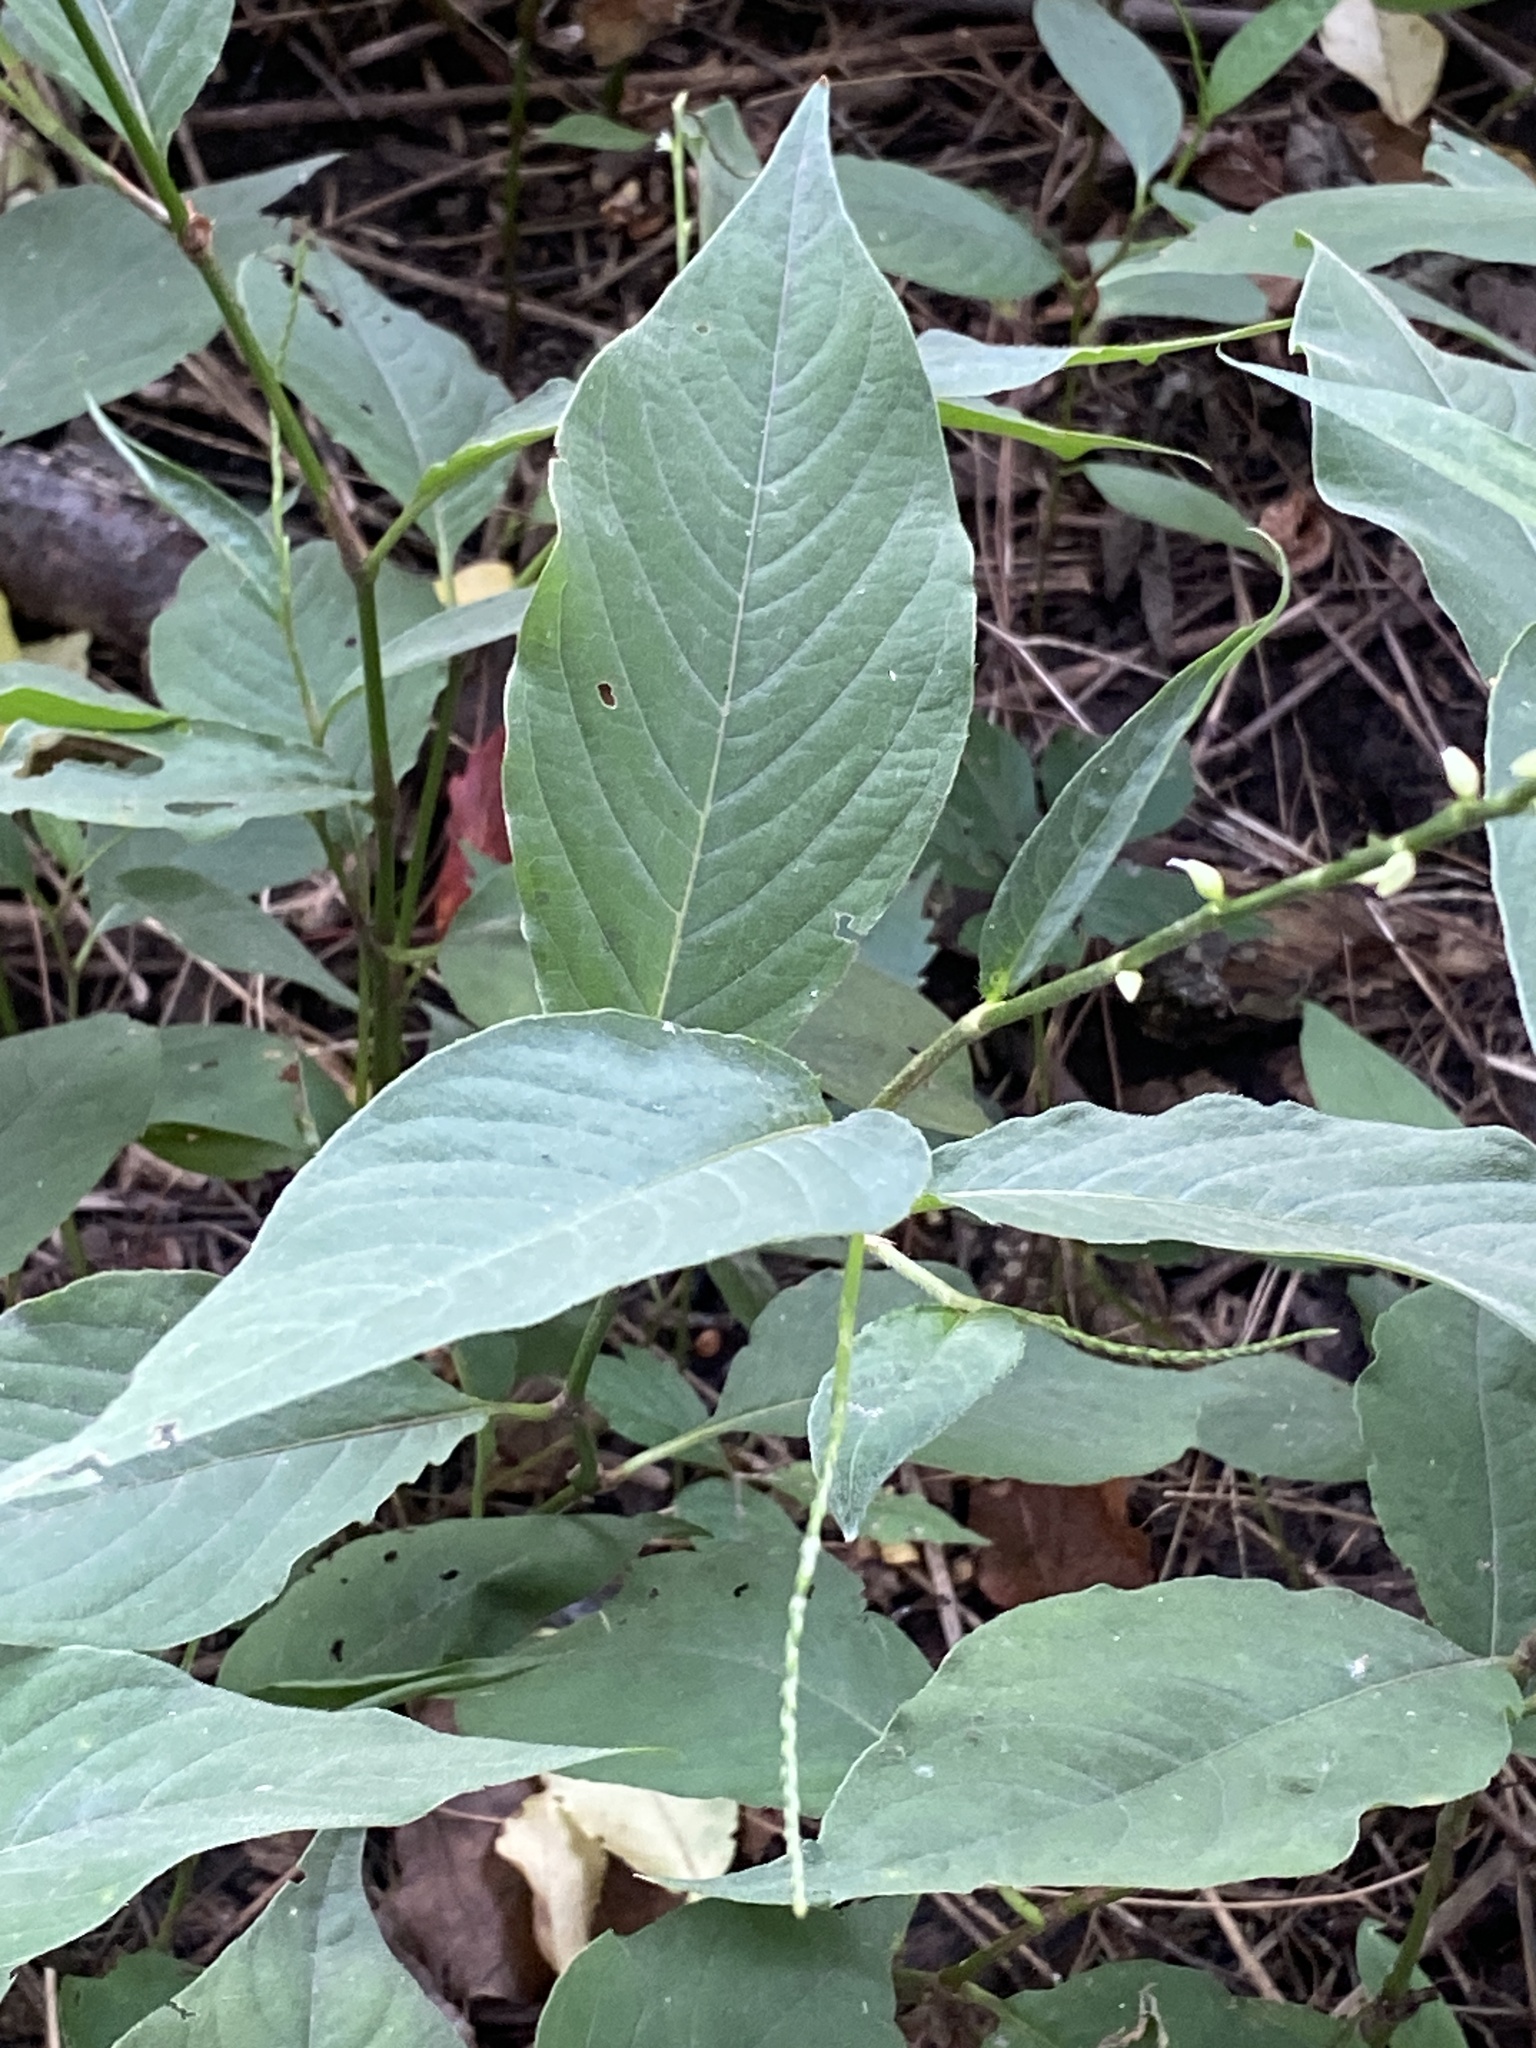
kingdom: Plantae
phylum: Tracheophyta
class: Magnoliopsida
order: Caryophyllales
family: Polygonaceae
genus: Persicaria
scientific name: Persicaria virginiana
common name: Jumpseed
